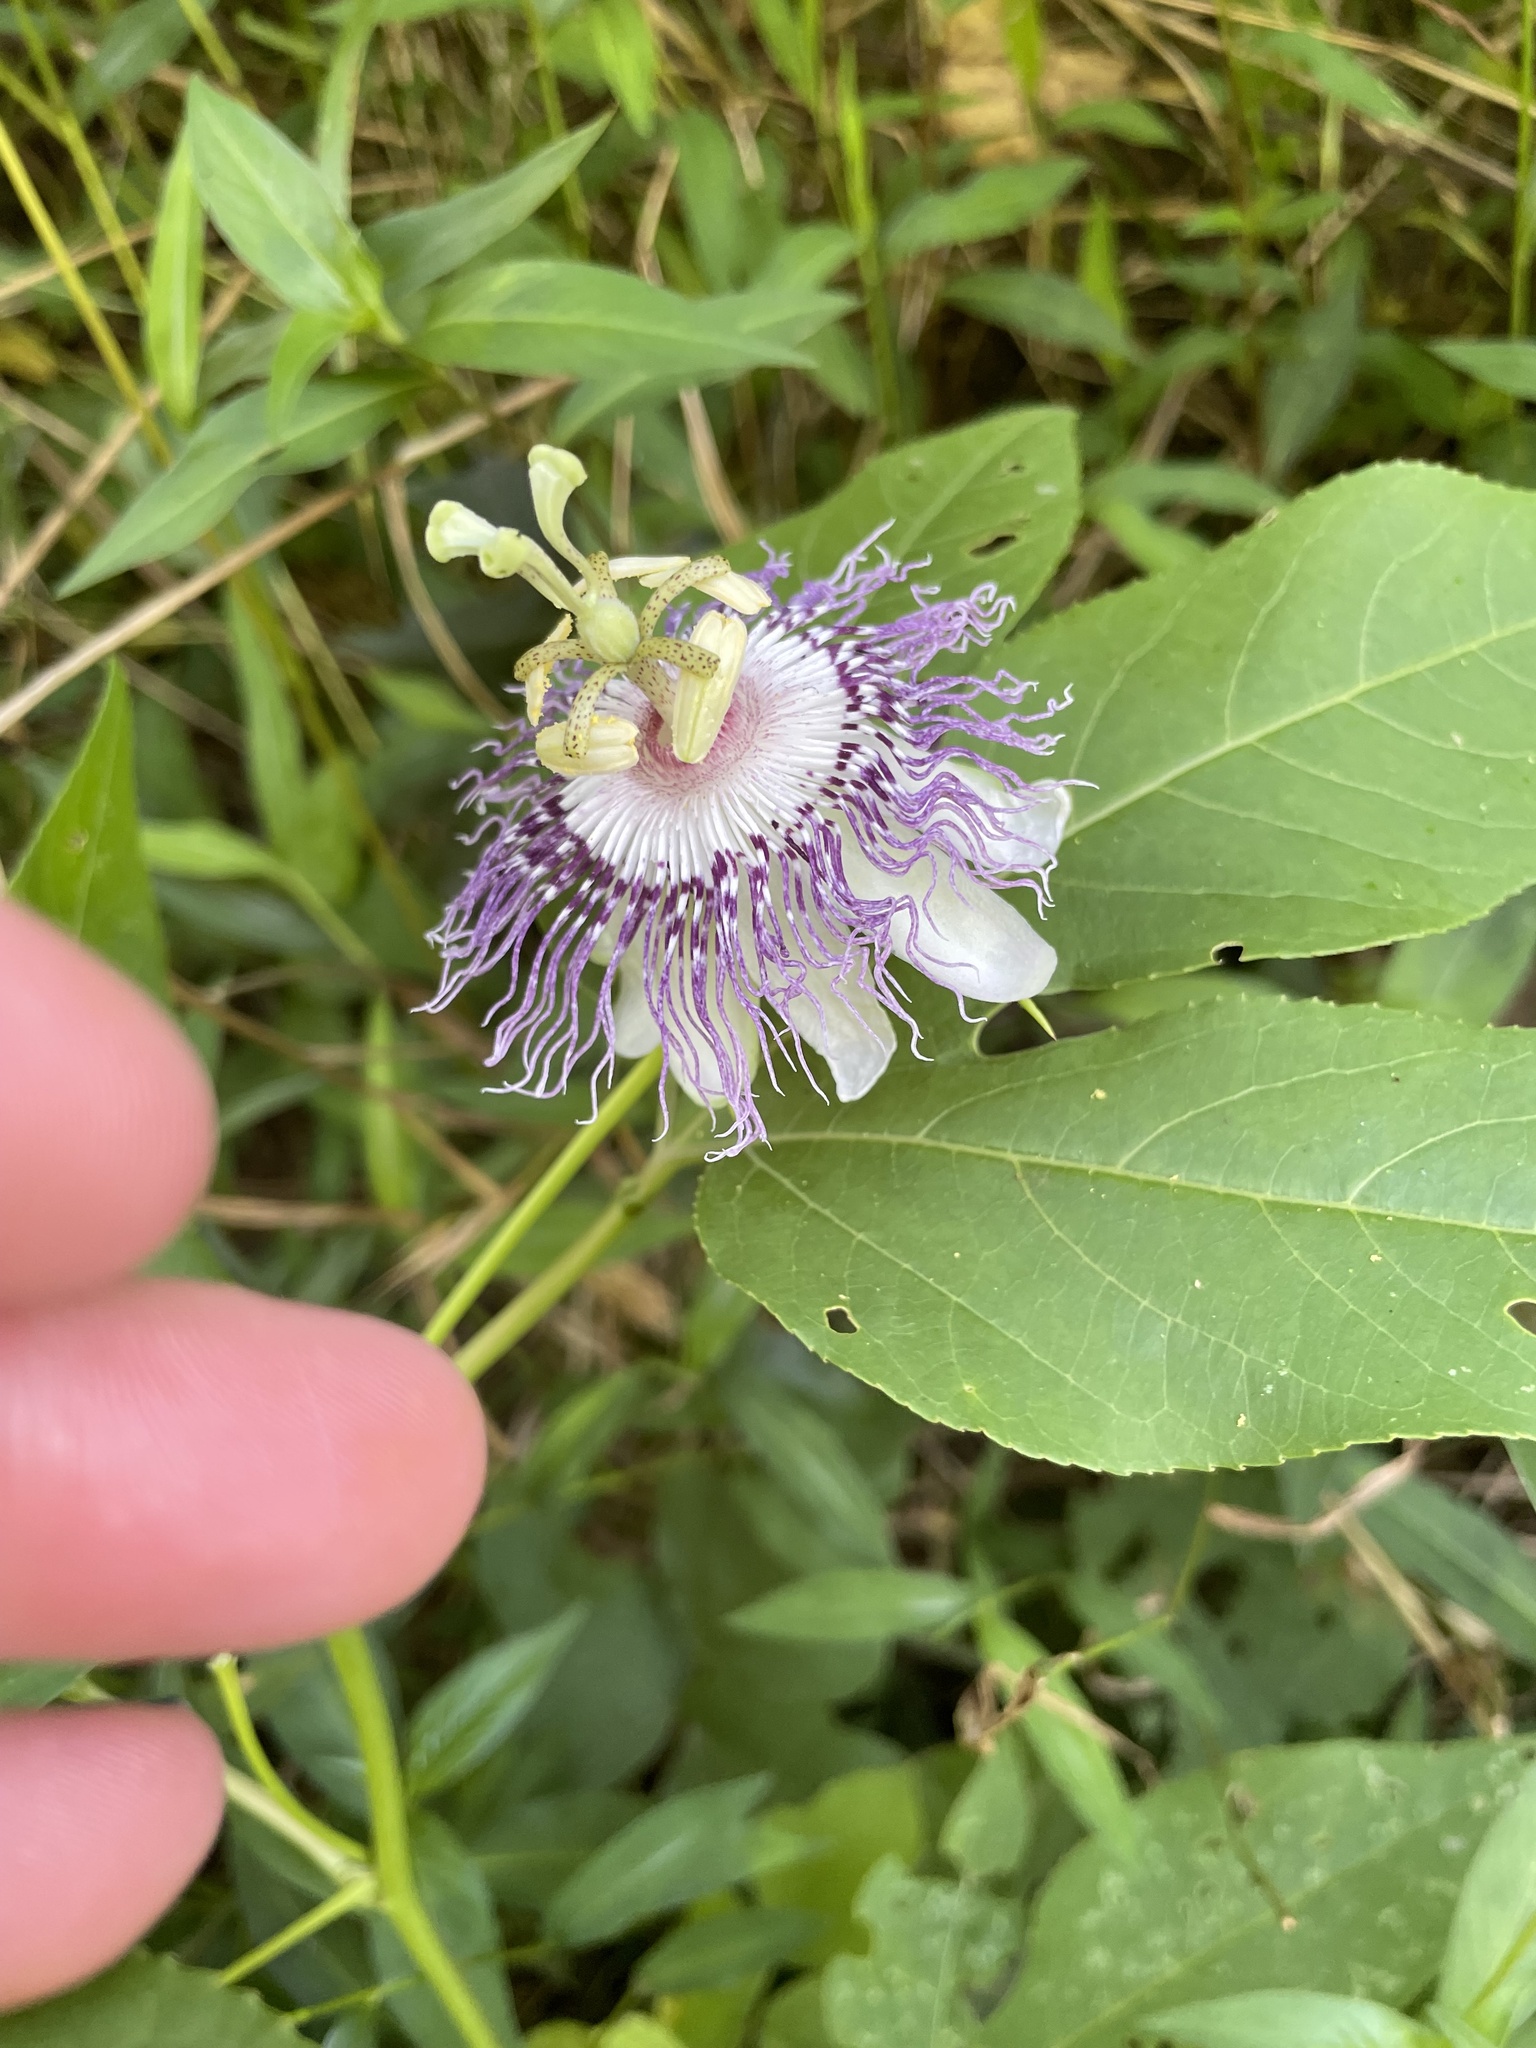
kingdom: Plantae
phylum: Tracheophyta
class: Magnoliopsida
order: Malpighiales
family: Passifloraceae
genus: Passiflora
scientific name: Passiflora incarnata
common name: Apricot-vine
